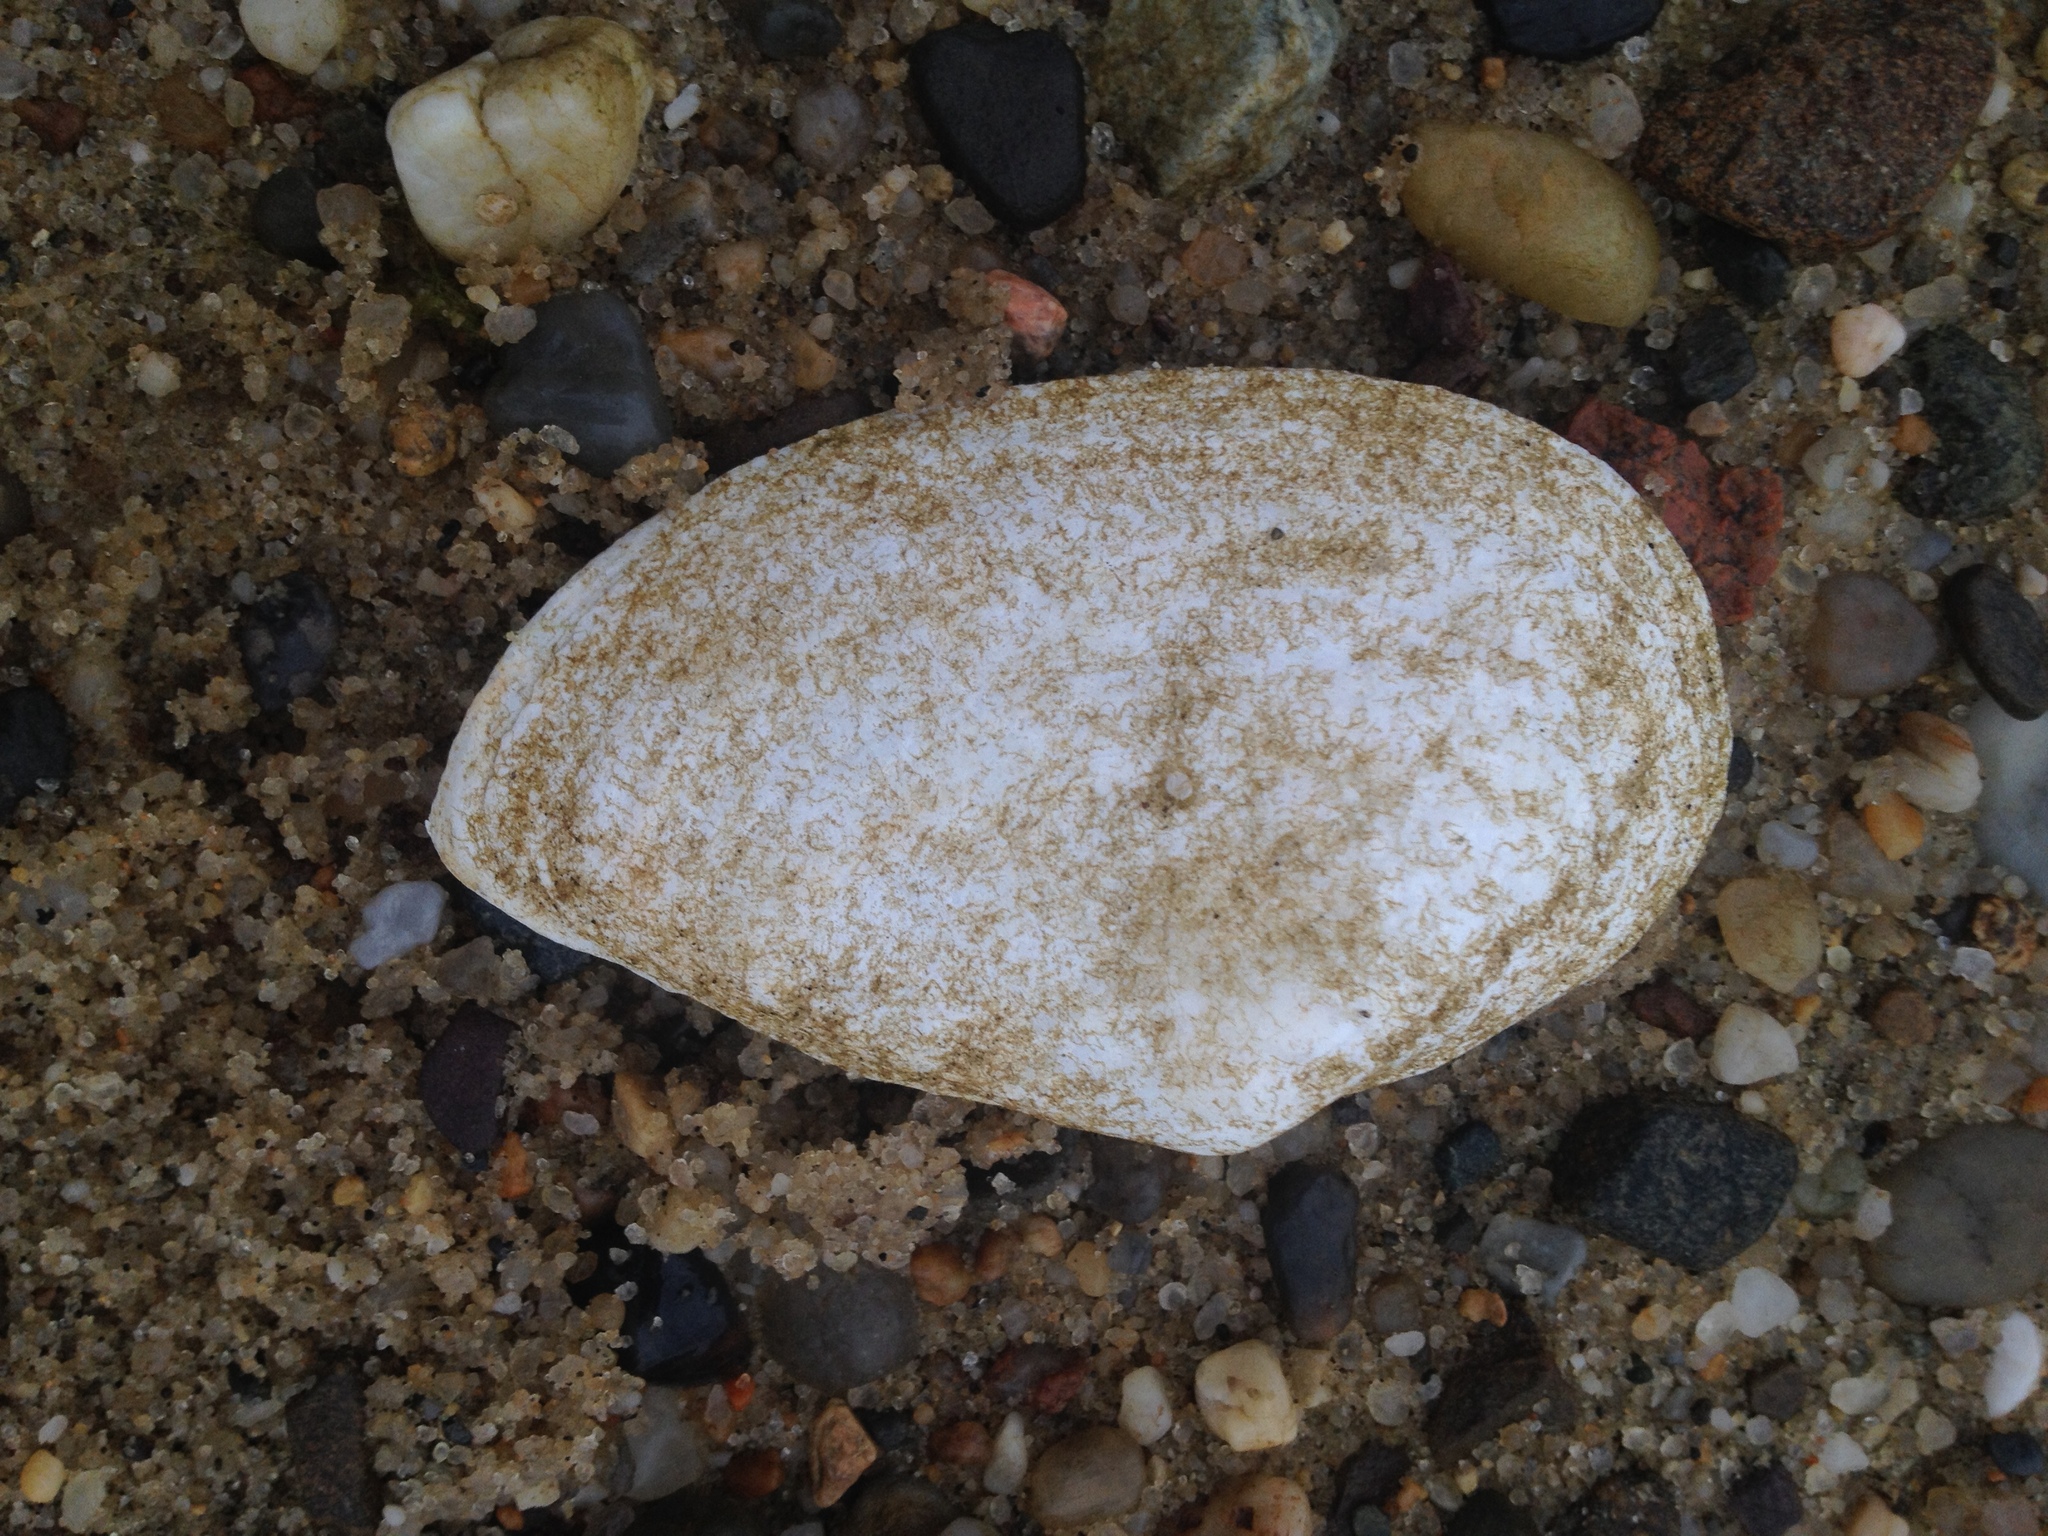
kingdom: Animalia
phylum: Mollusca
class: Bivalvia
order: Myida
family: Myidae
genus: Mya
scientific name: Mya arenaria
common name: Soft-shelled clam
